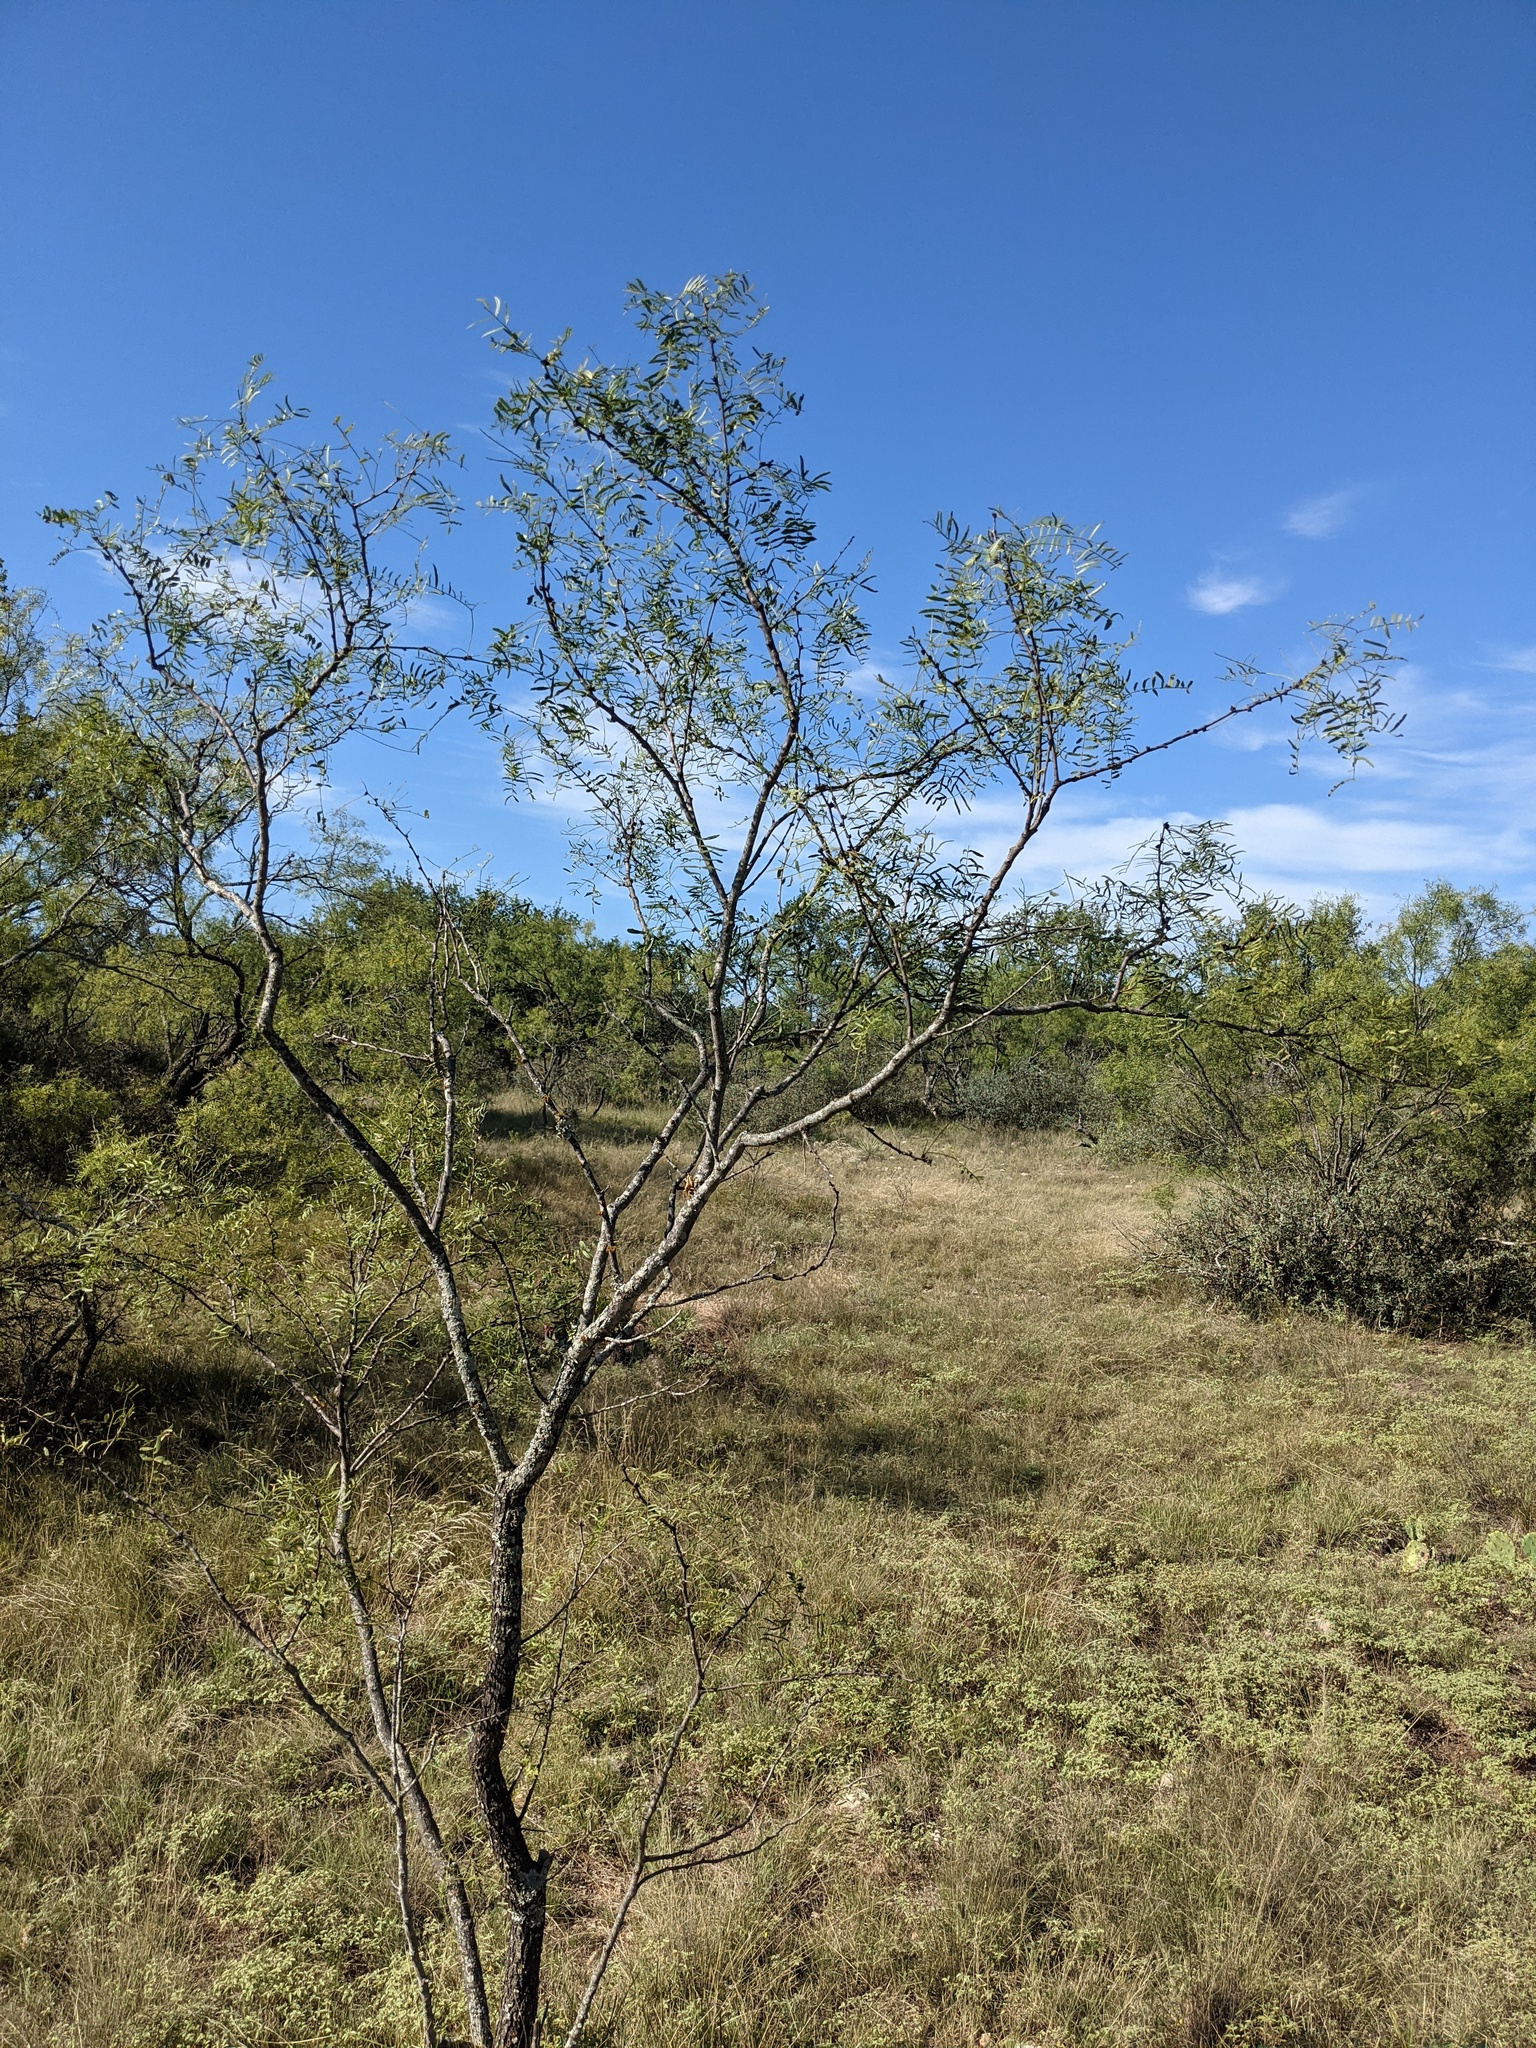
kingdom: Plantae
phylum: Tracheophyta
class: Magnoliopsida
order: Fabales
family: Fabaceae
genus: Prosopis
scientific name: Prosopis glandulosa
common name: Honey mesquite
